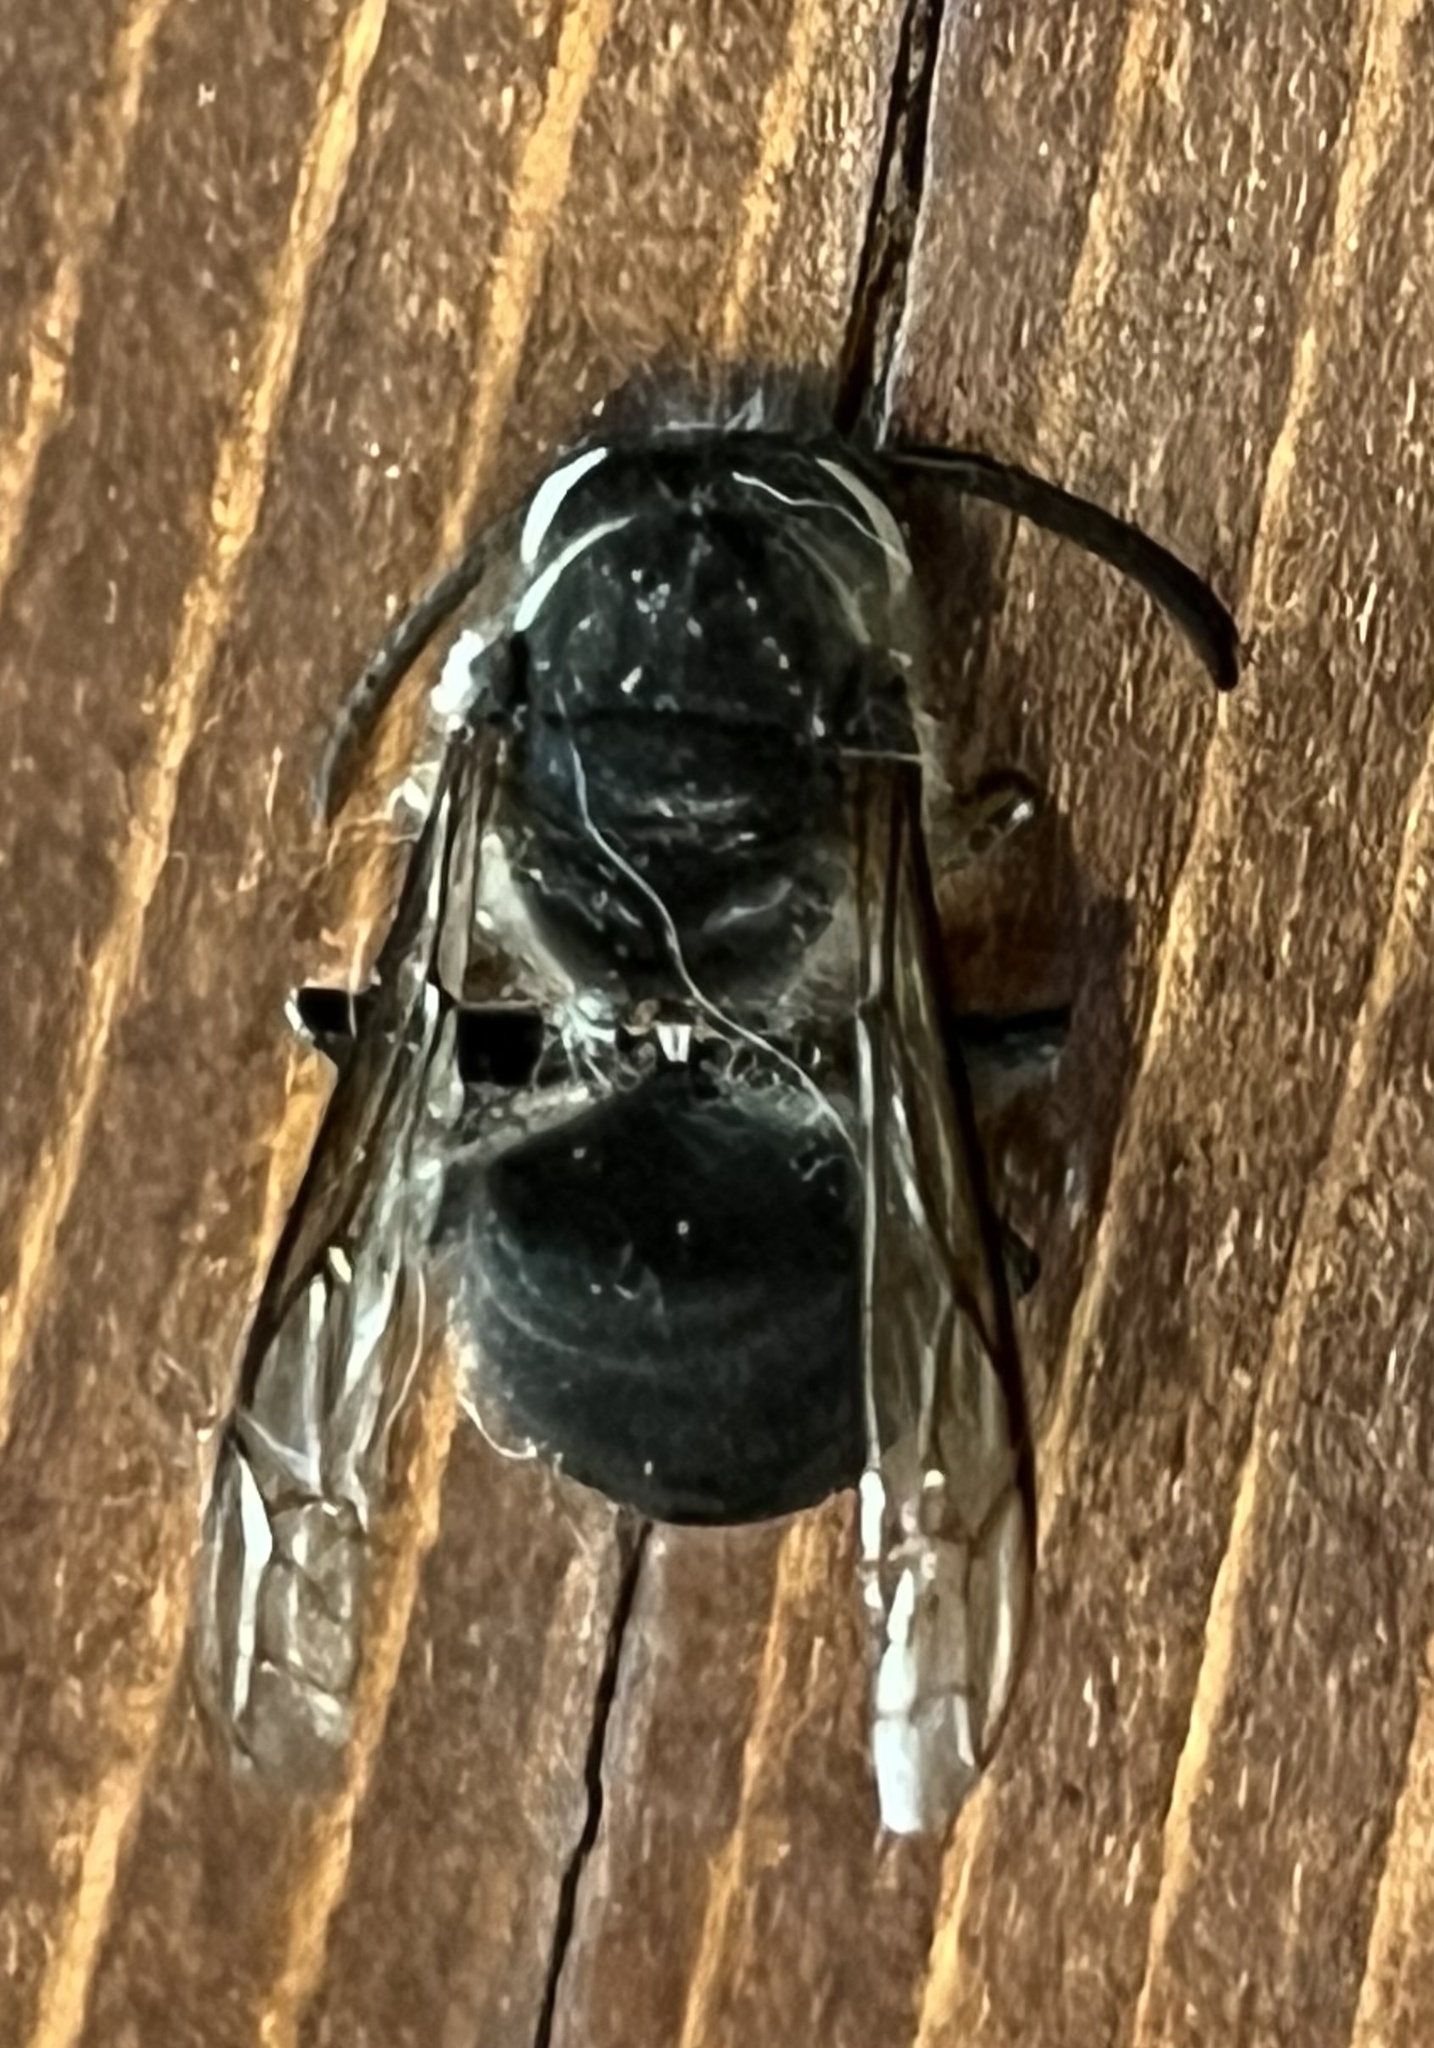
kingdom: Animalia
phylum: Arthropoda
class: Insecta
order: Hymenoptera
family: Vespidae
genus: Dolichovespula
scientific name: Dolichovespula maculata
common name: Bald-faced hornet
